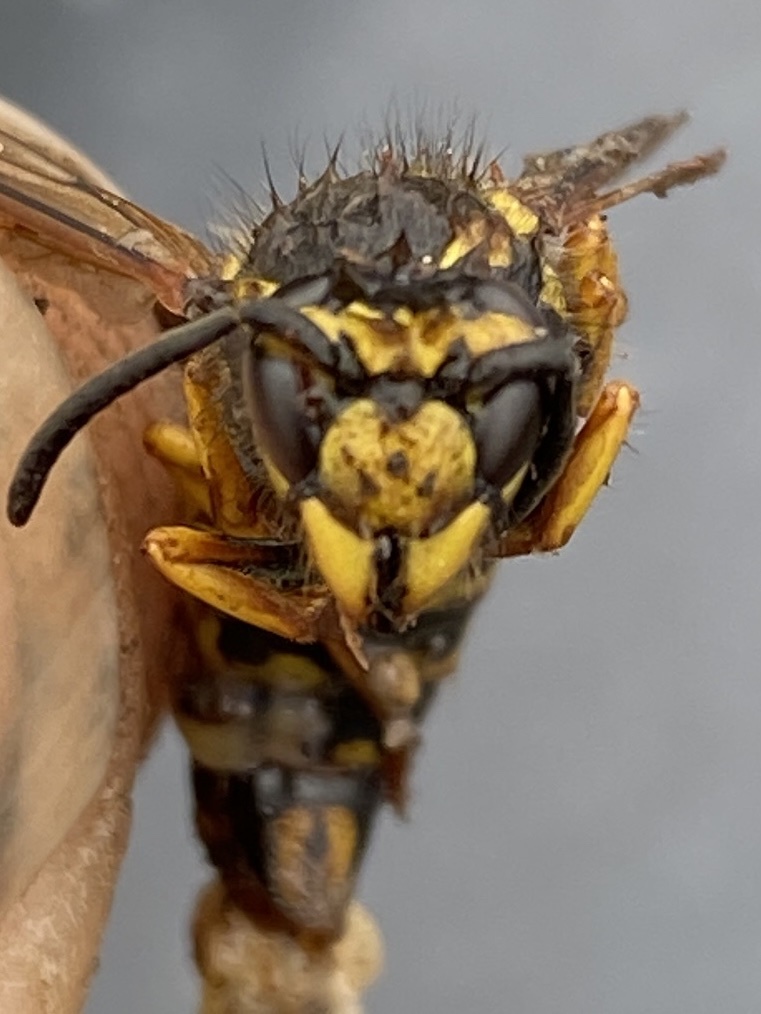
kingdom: Animalia
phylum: Arthropoda
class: Insecta
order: Hymenoptera
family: Vespidae
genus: Vespula
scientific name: Vespula germanica
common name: German wasp
